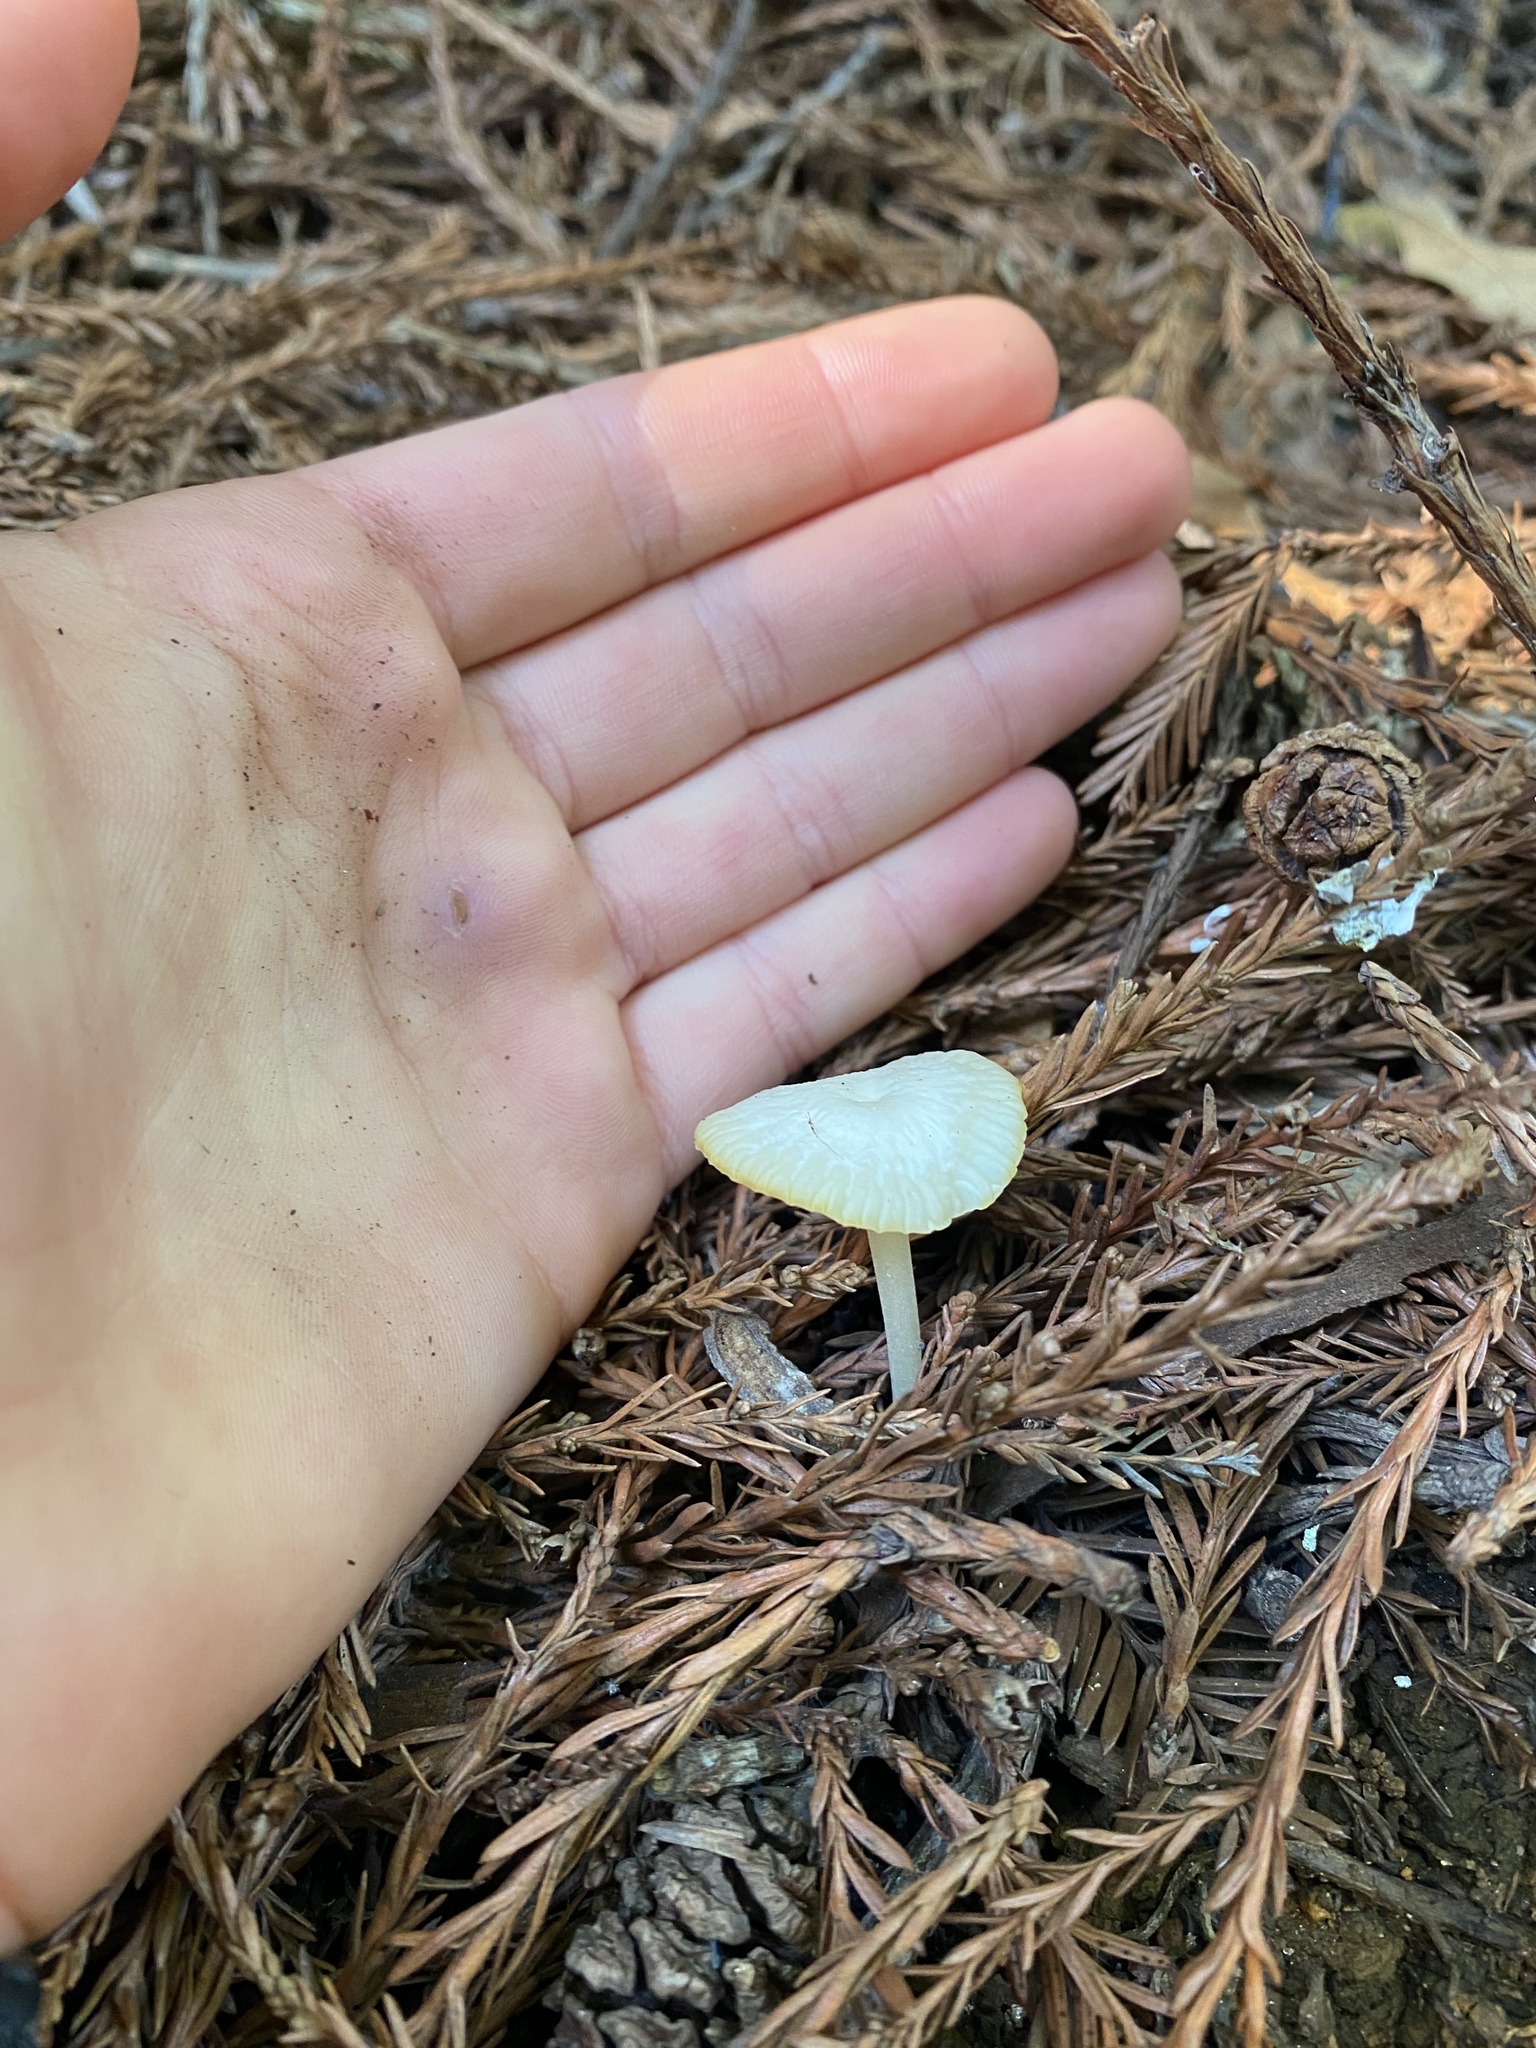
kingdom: Fungi
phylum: Basidiomycota
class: Agaricomycetes
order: Agaricales
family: Marasmiaceae
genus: Marasmius
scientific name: Marasmius calhouniae
